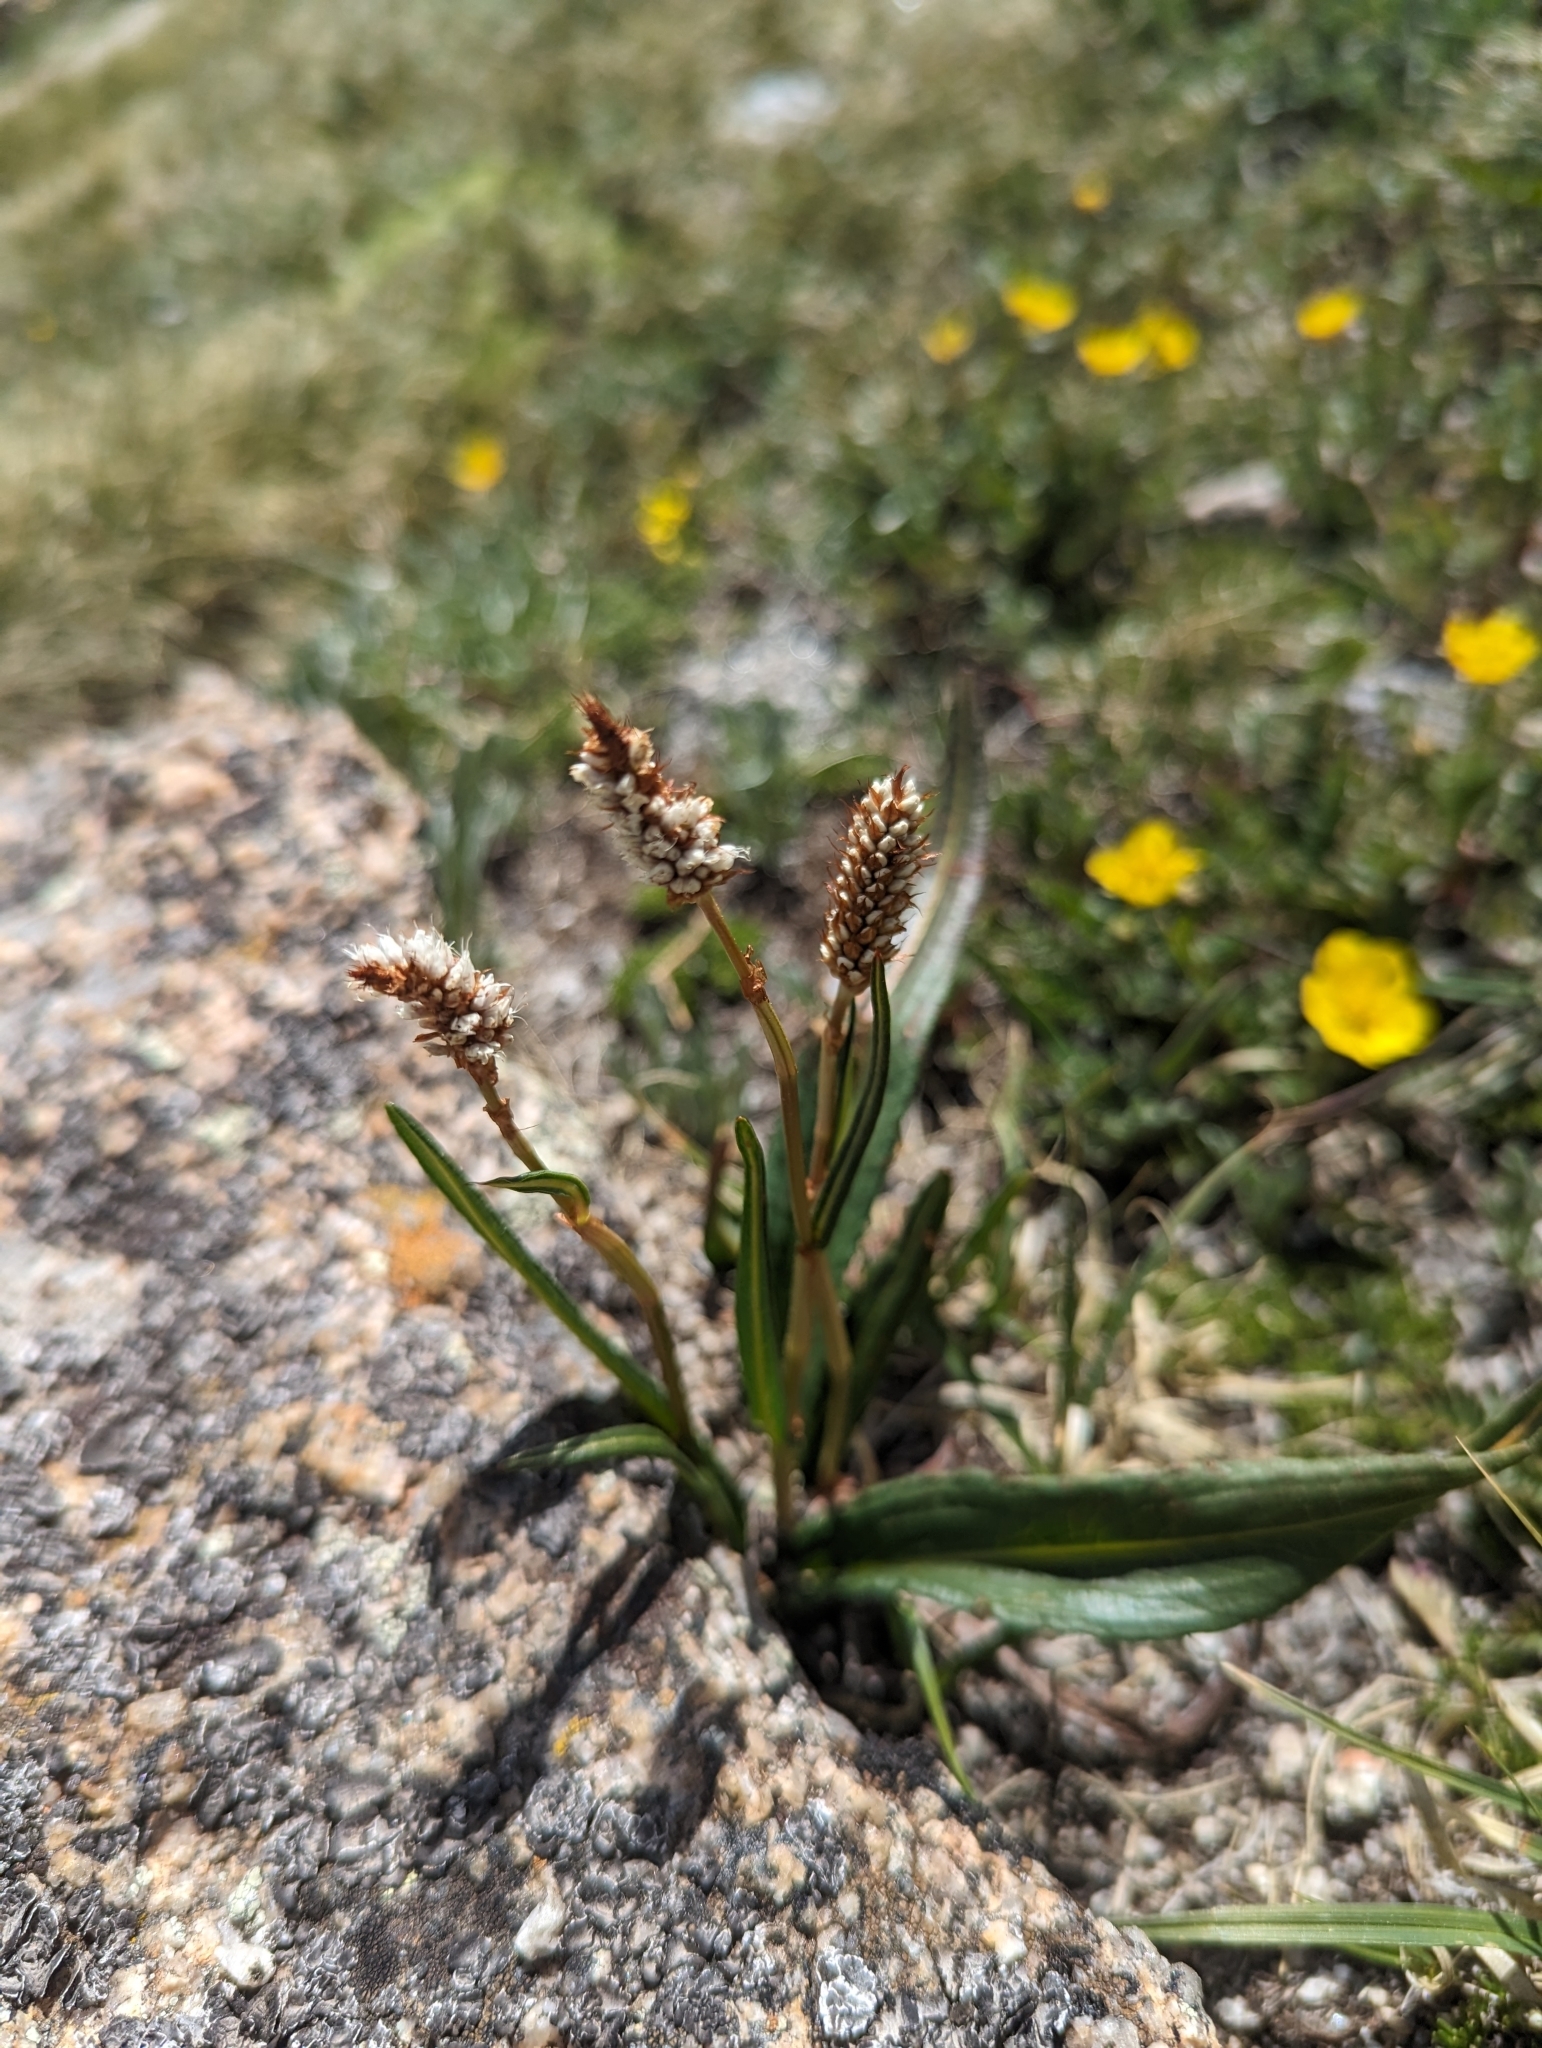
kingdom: Plantae
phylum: Tracheophyta
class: Magnoliopsida
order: Caryophyllales
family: Polygonaceae
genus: Bistorta
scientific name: Bistorta bistortoides
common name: American bistort
